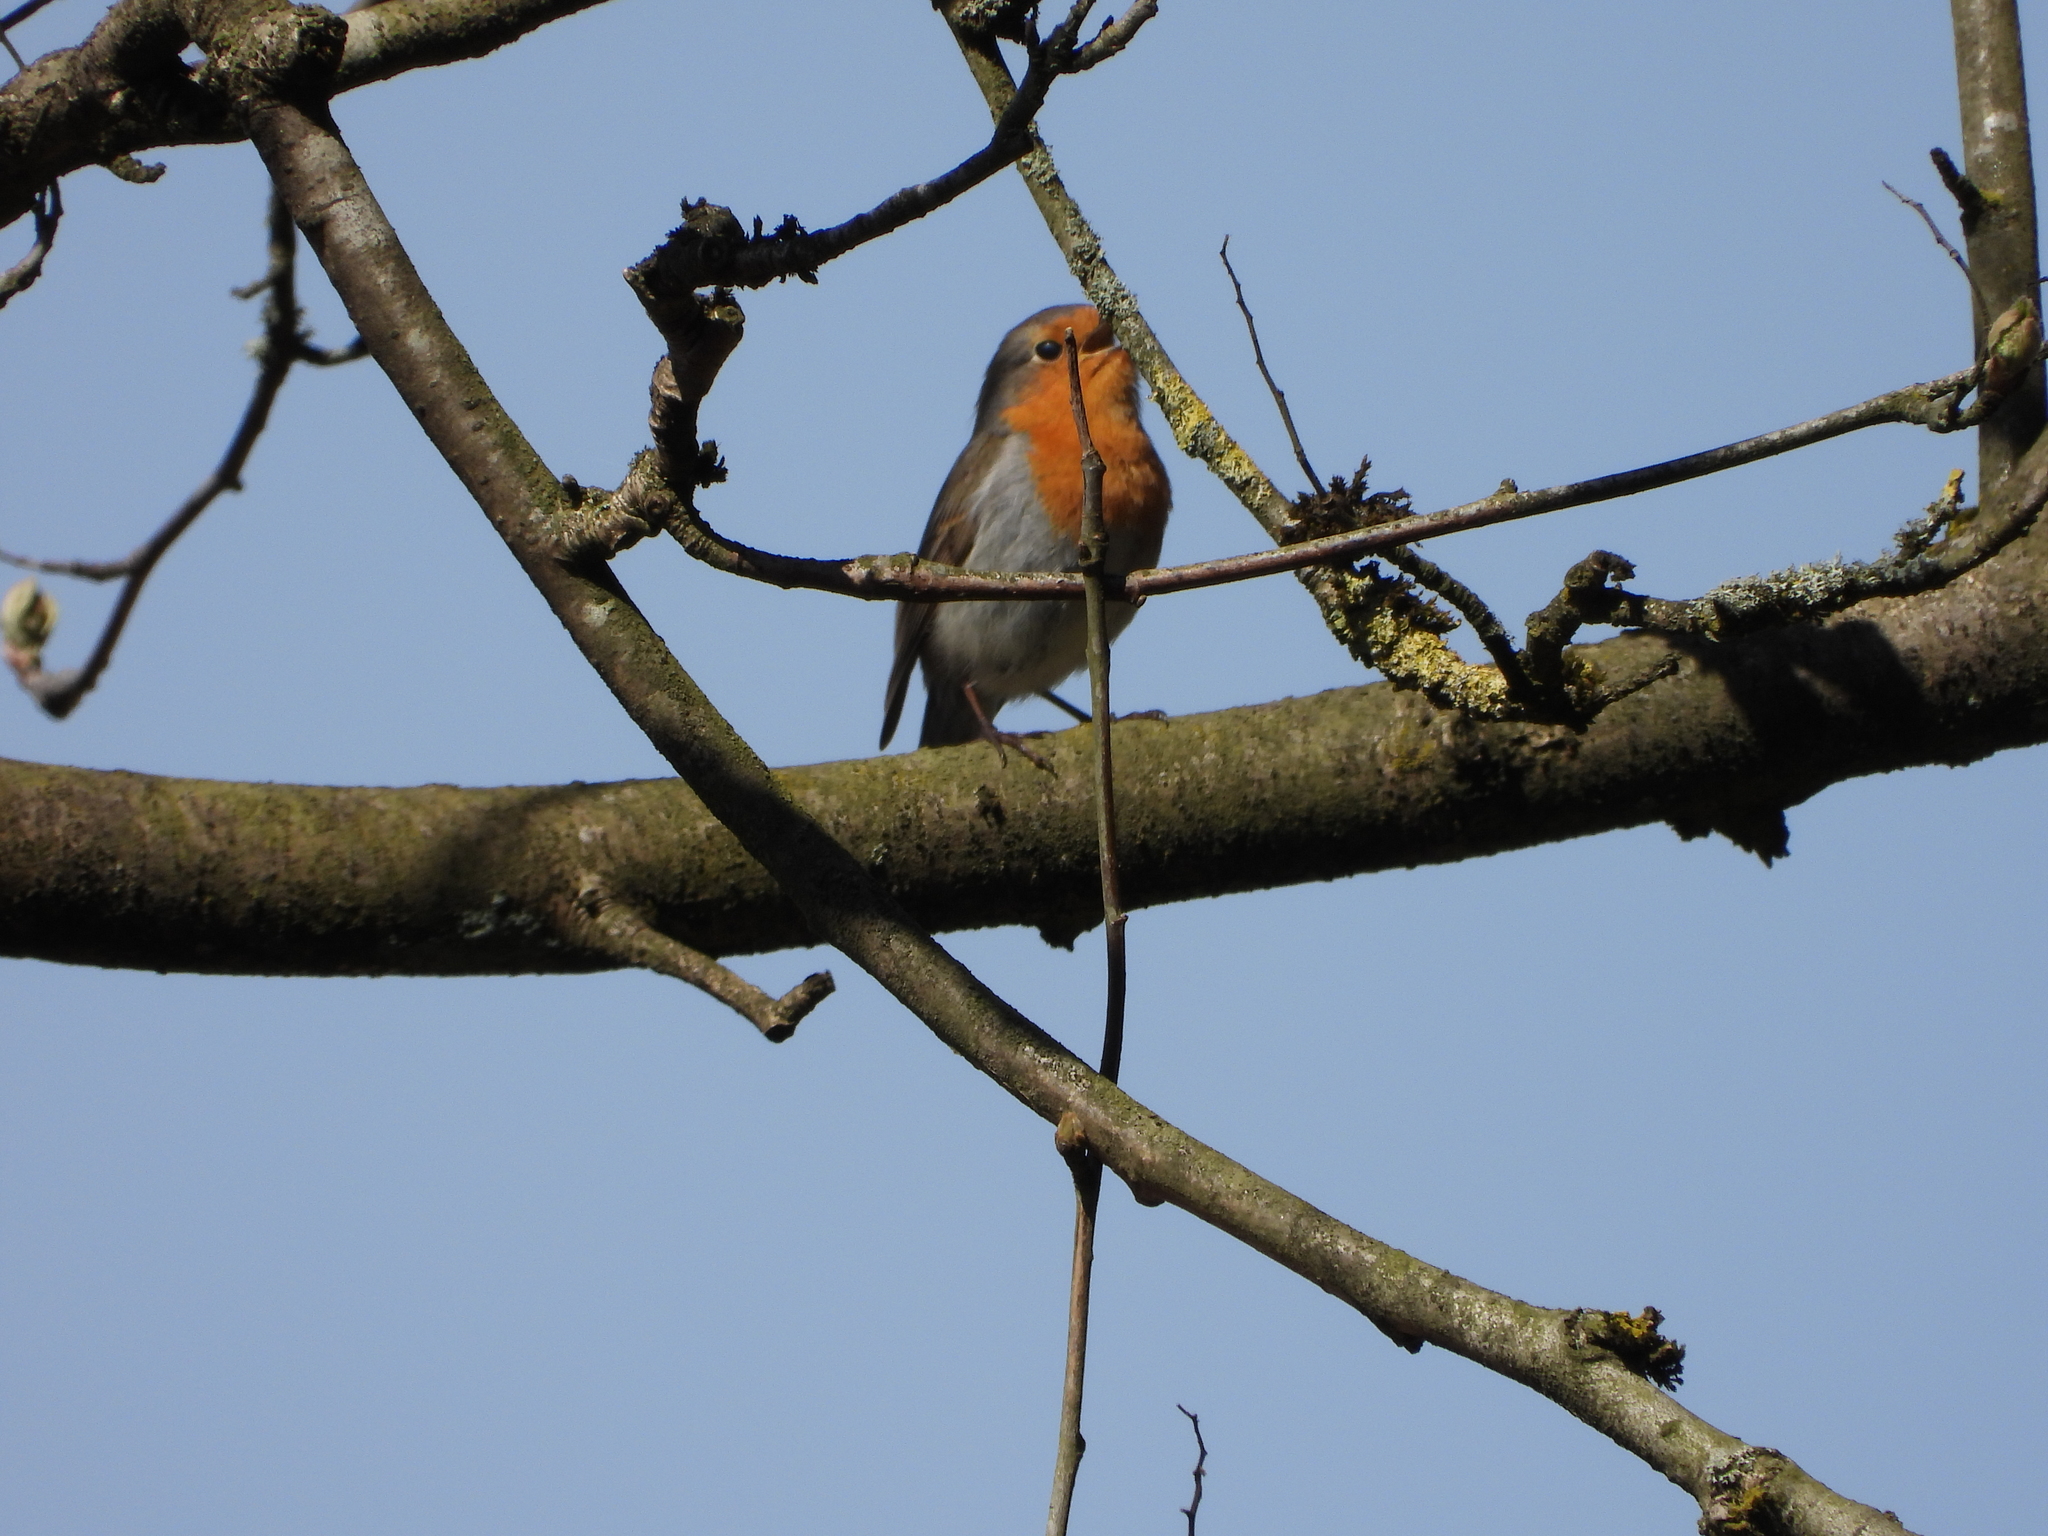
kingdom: Animalia
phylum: Chordata
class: Aves
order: Passeriformes
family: Muscicapidae
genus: Erithacus
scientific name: Erithacus rubecula
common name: European robin
